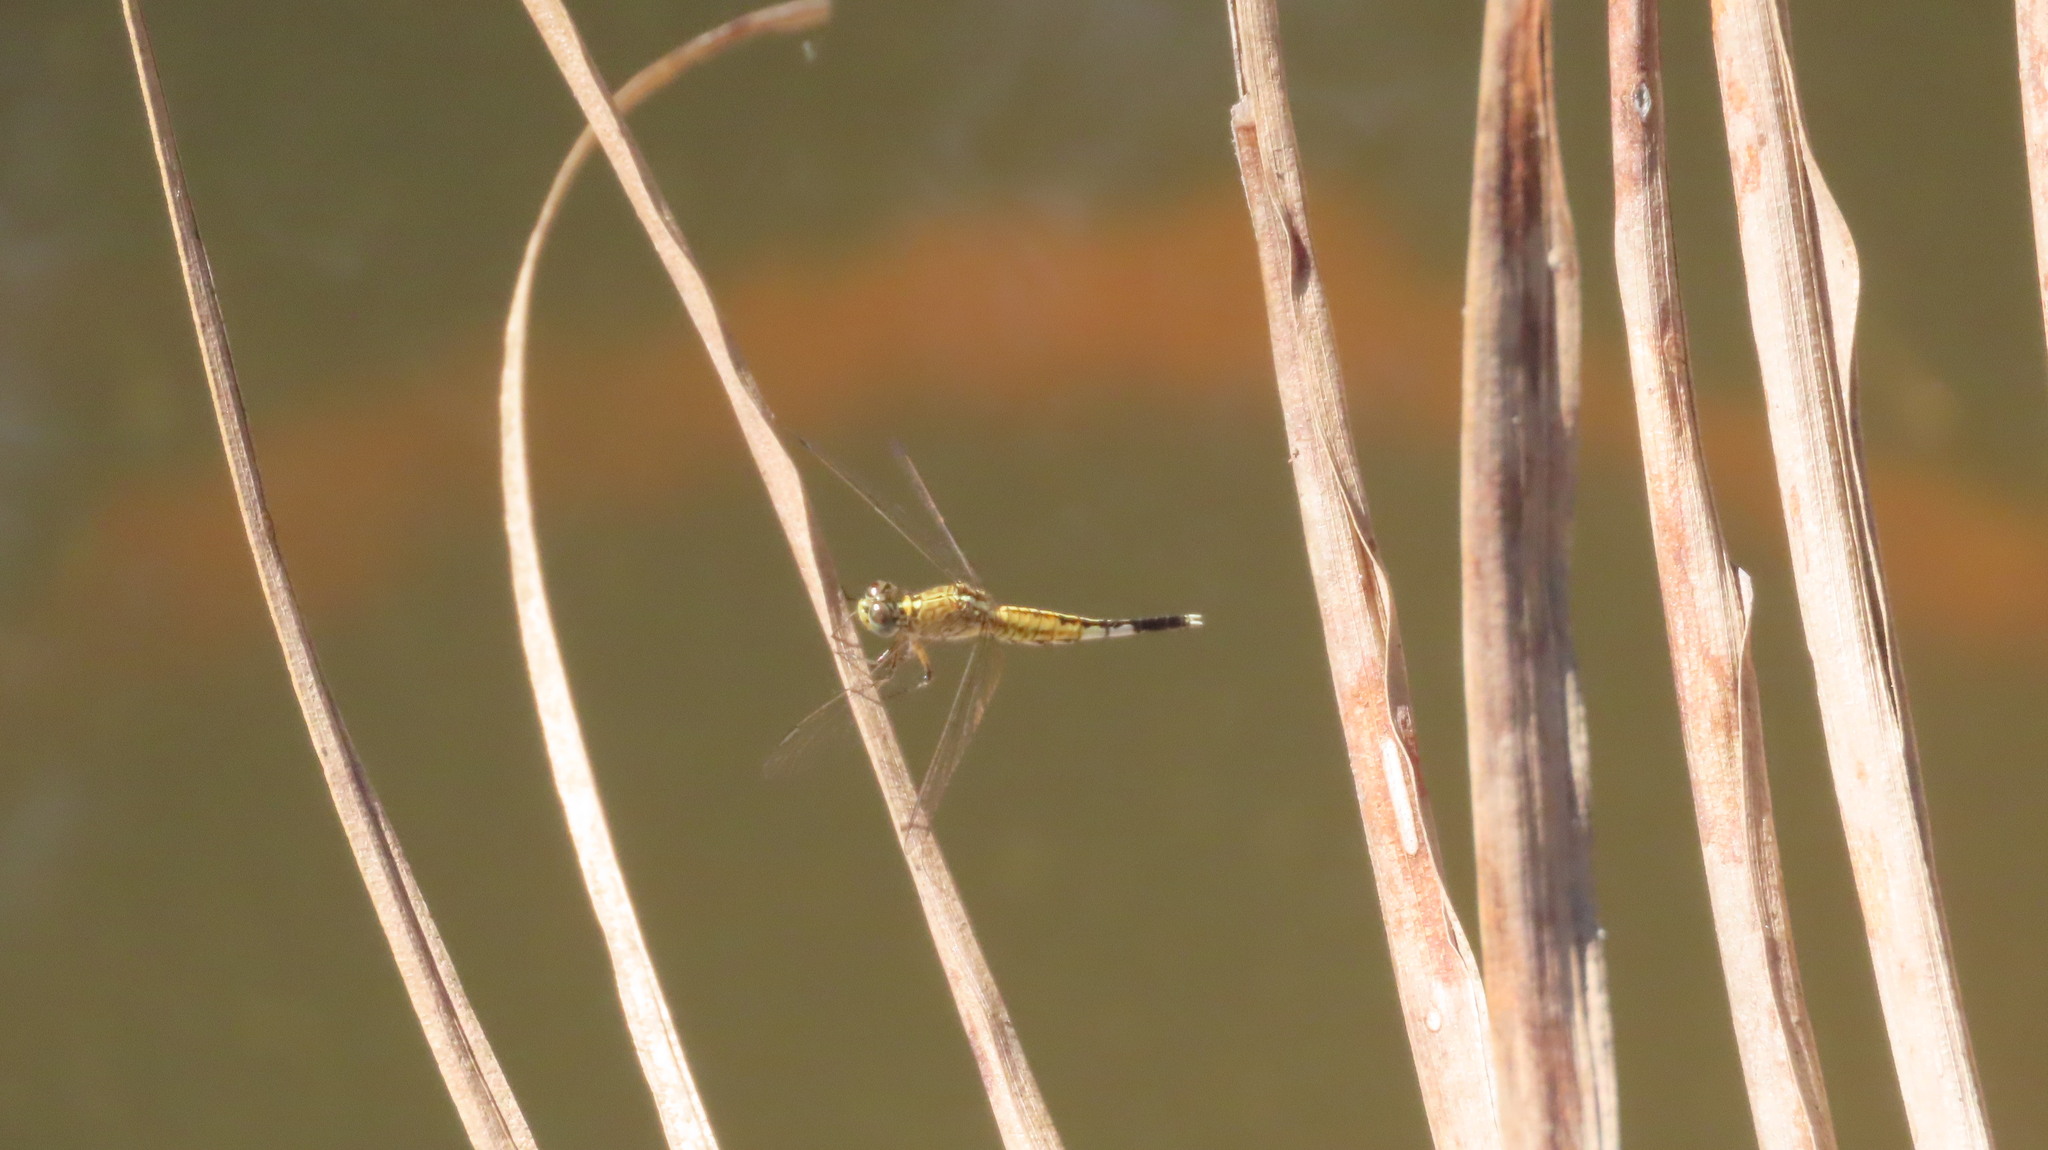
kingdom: Animalia
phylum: Arthropoda
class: Insecta
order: Odonata
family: Libellulidae
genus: Acisoma
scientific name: Acisoma panorpoides
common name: Asian pintail
